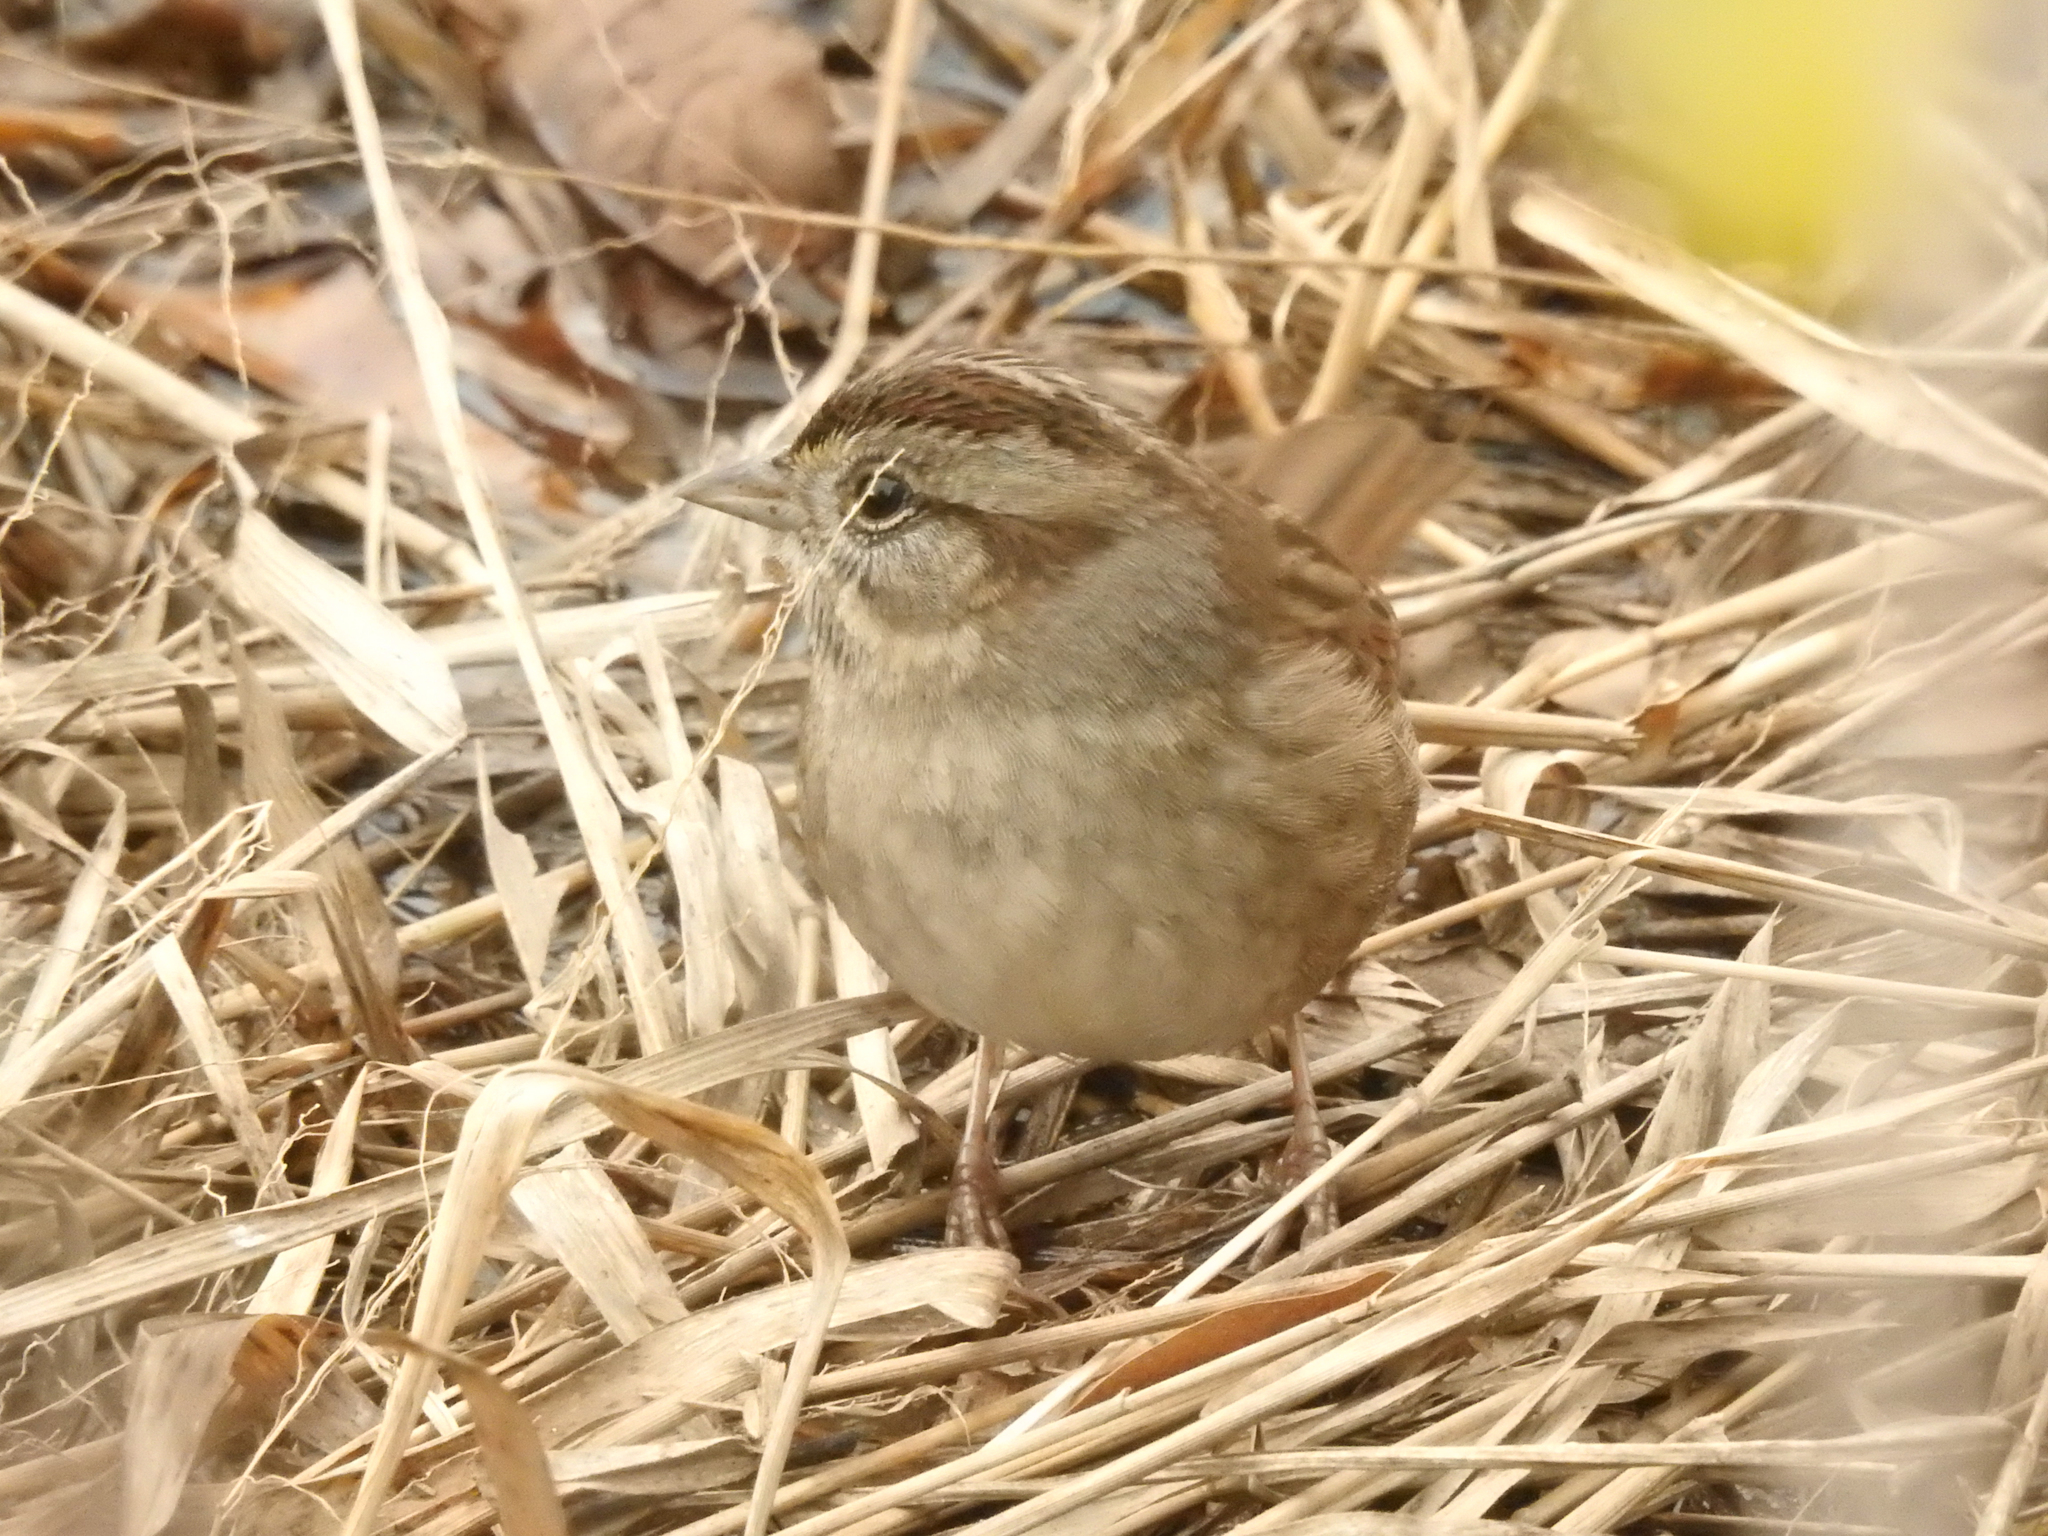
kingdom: Animalia
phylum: Chordata
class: Aves
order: Passeriformes
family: Passerellidae
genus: Melospiza
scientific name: Melospiza georgiana
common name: Swamp sparrow
